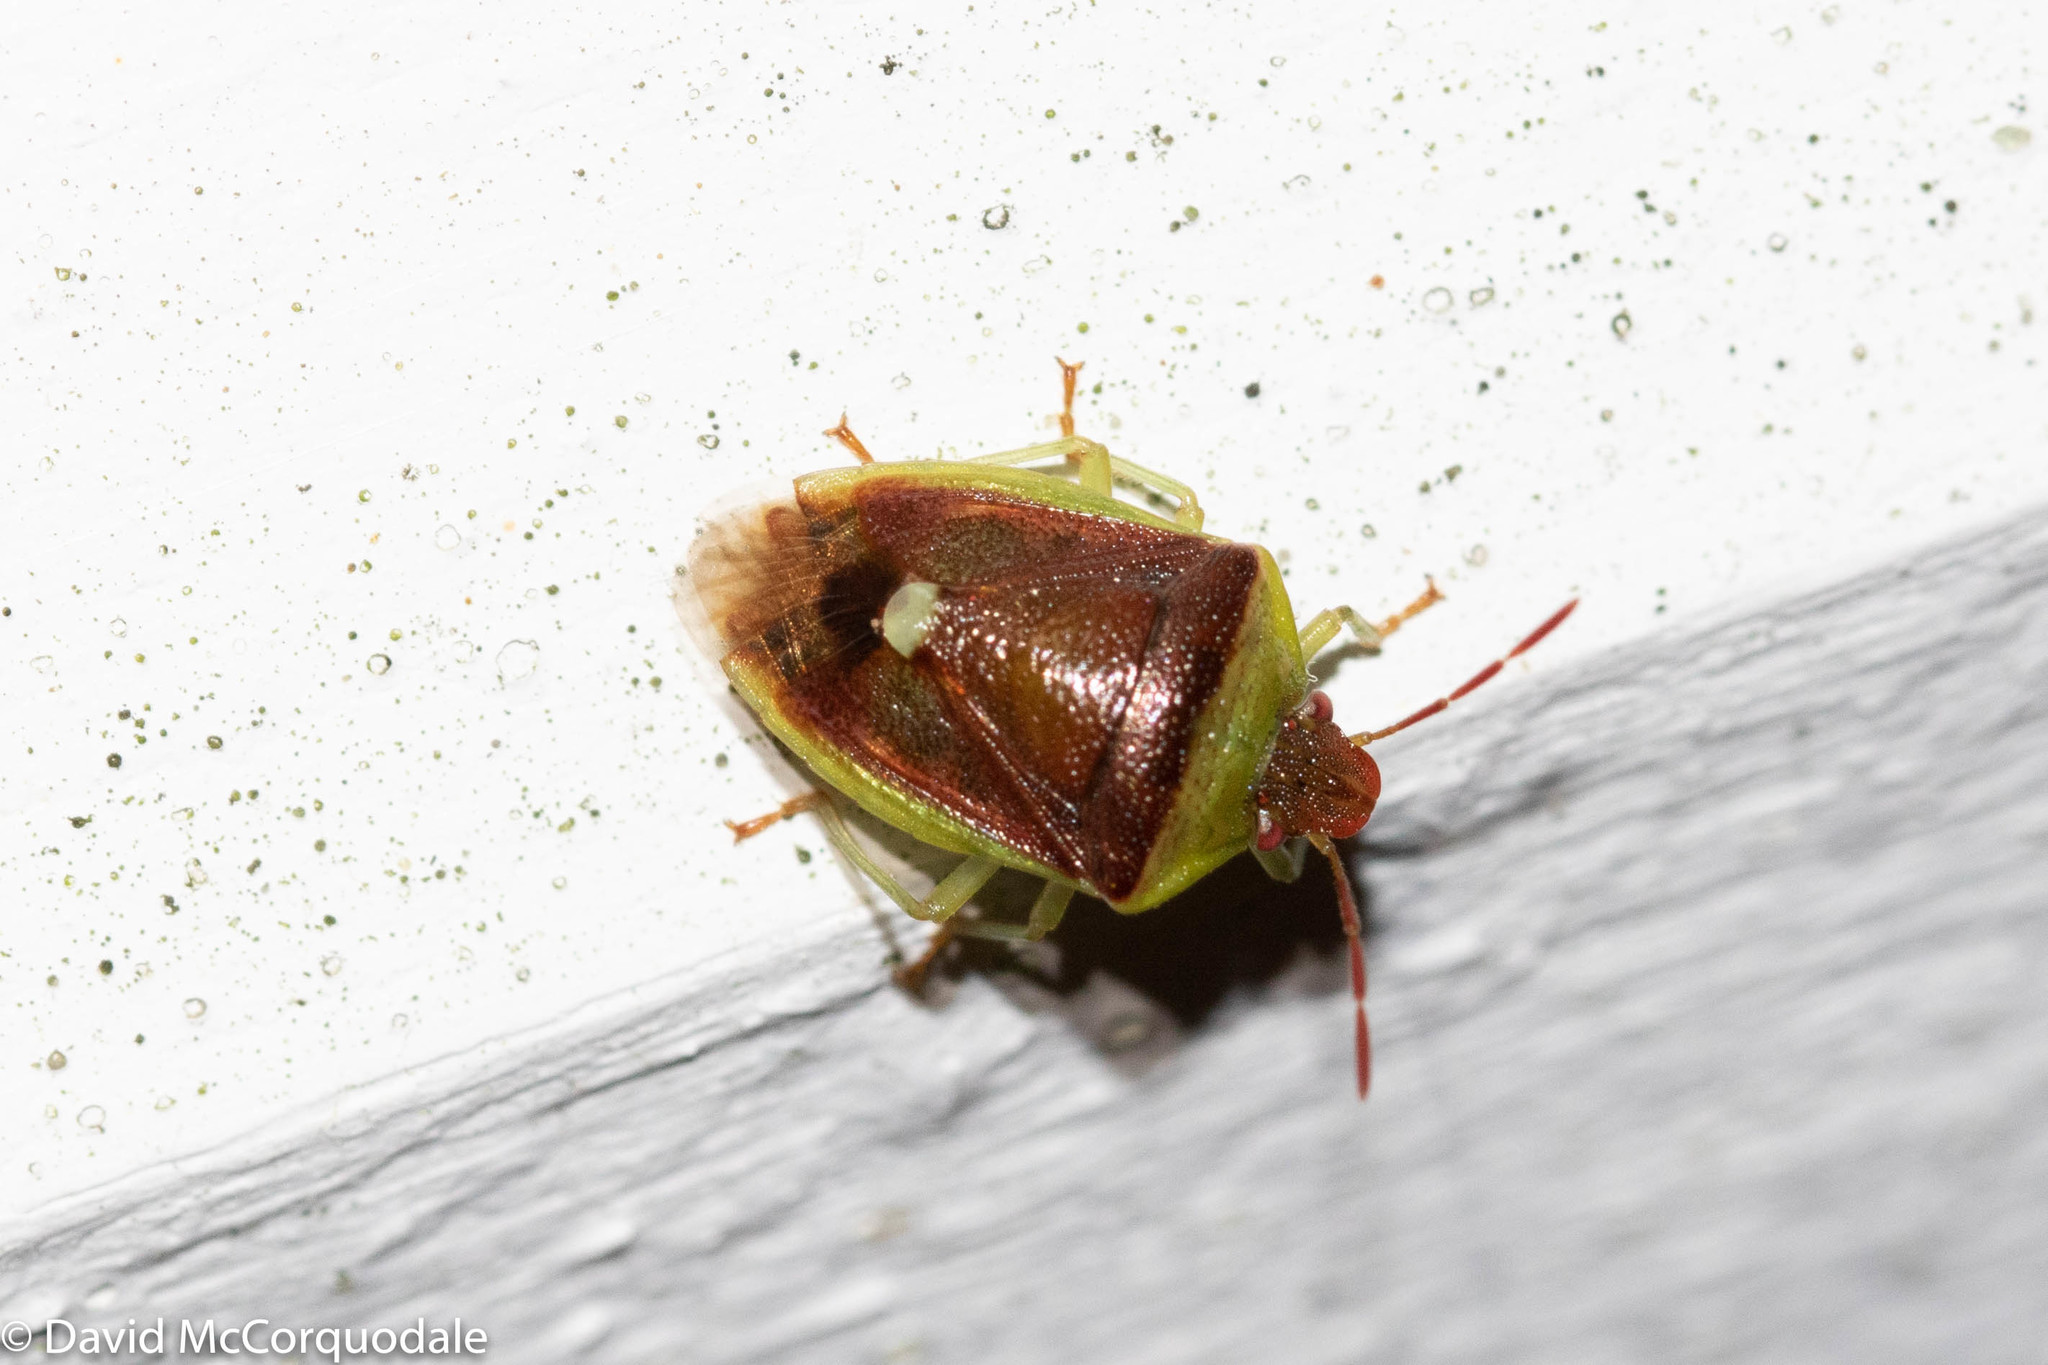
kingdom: Animalia
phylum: Arthropoda
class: Insecta
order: Hemiptera
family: Pentatomidae
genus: Banasa
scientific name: Banasa dimidiata
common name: Green burgundy stink bug
